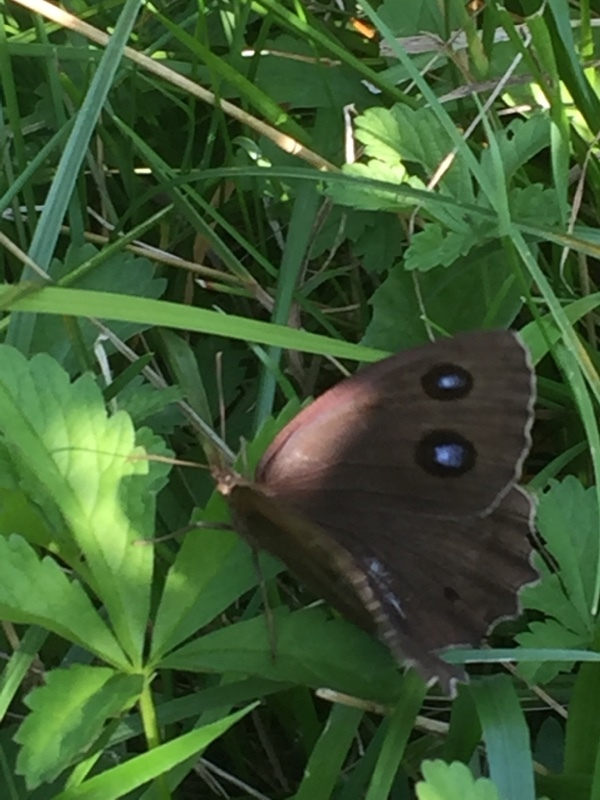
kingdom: Animalia
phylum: Arthropoda
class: Insecta
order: Lepidoptera
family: Nymphalidae
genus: Minois
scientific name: Minois dryas
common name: Dryad
